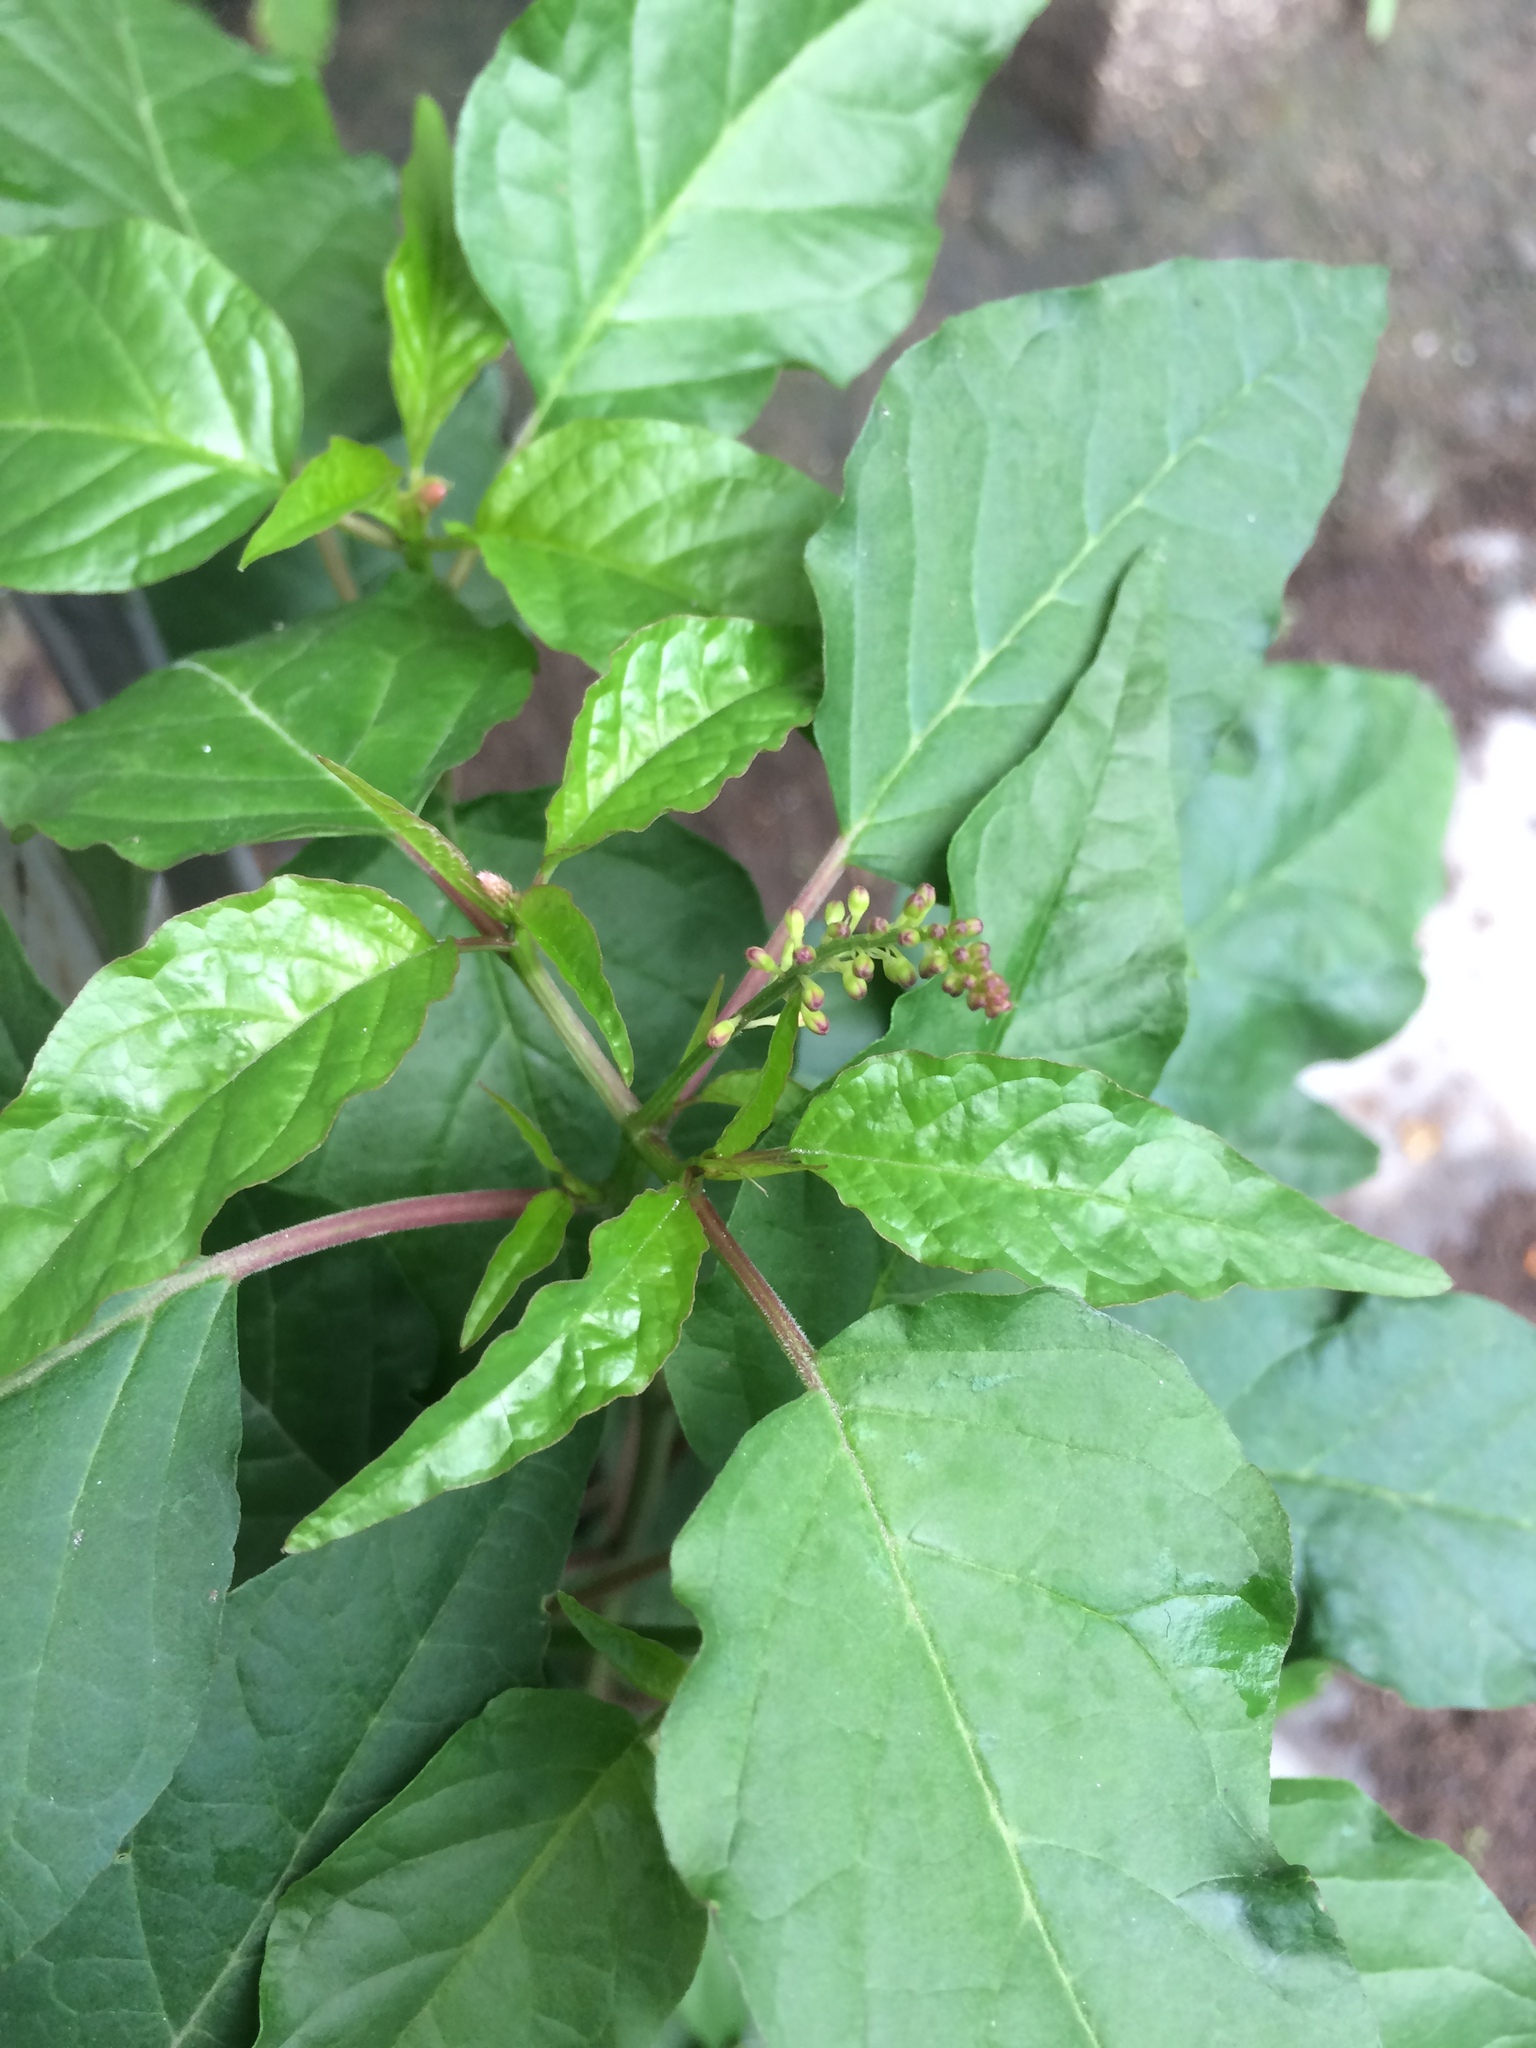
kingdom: Plantae
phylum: Tracheophyta
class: Magnoliopsida
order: Caryophyllales
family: Phytolaccaceae
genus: Rivina
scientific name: Rivina humilis
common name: Rougeplant
